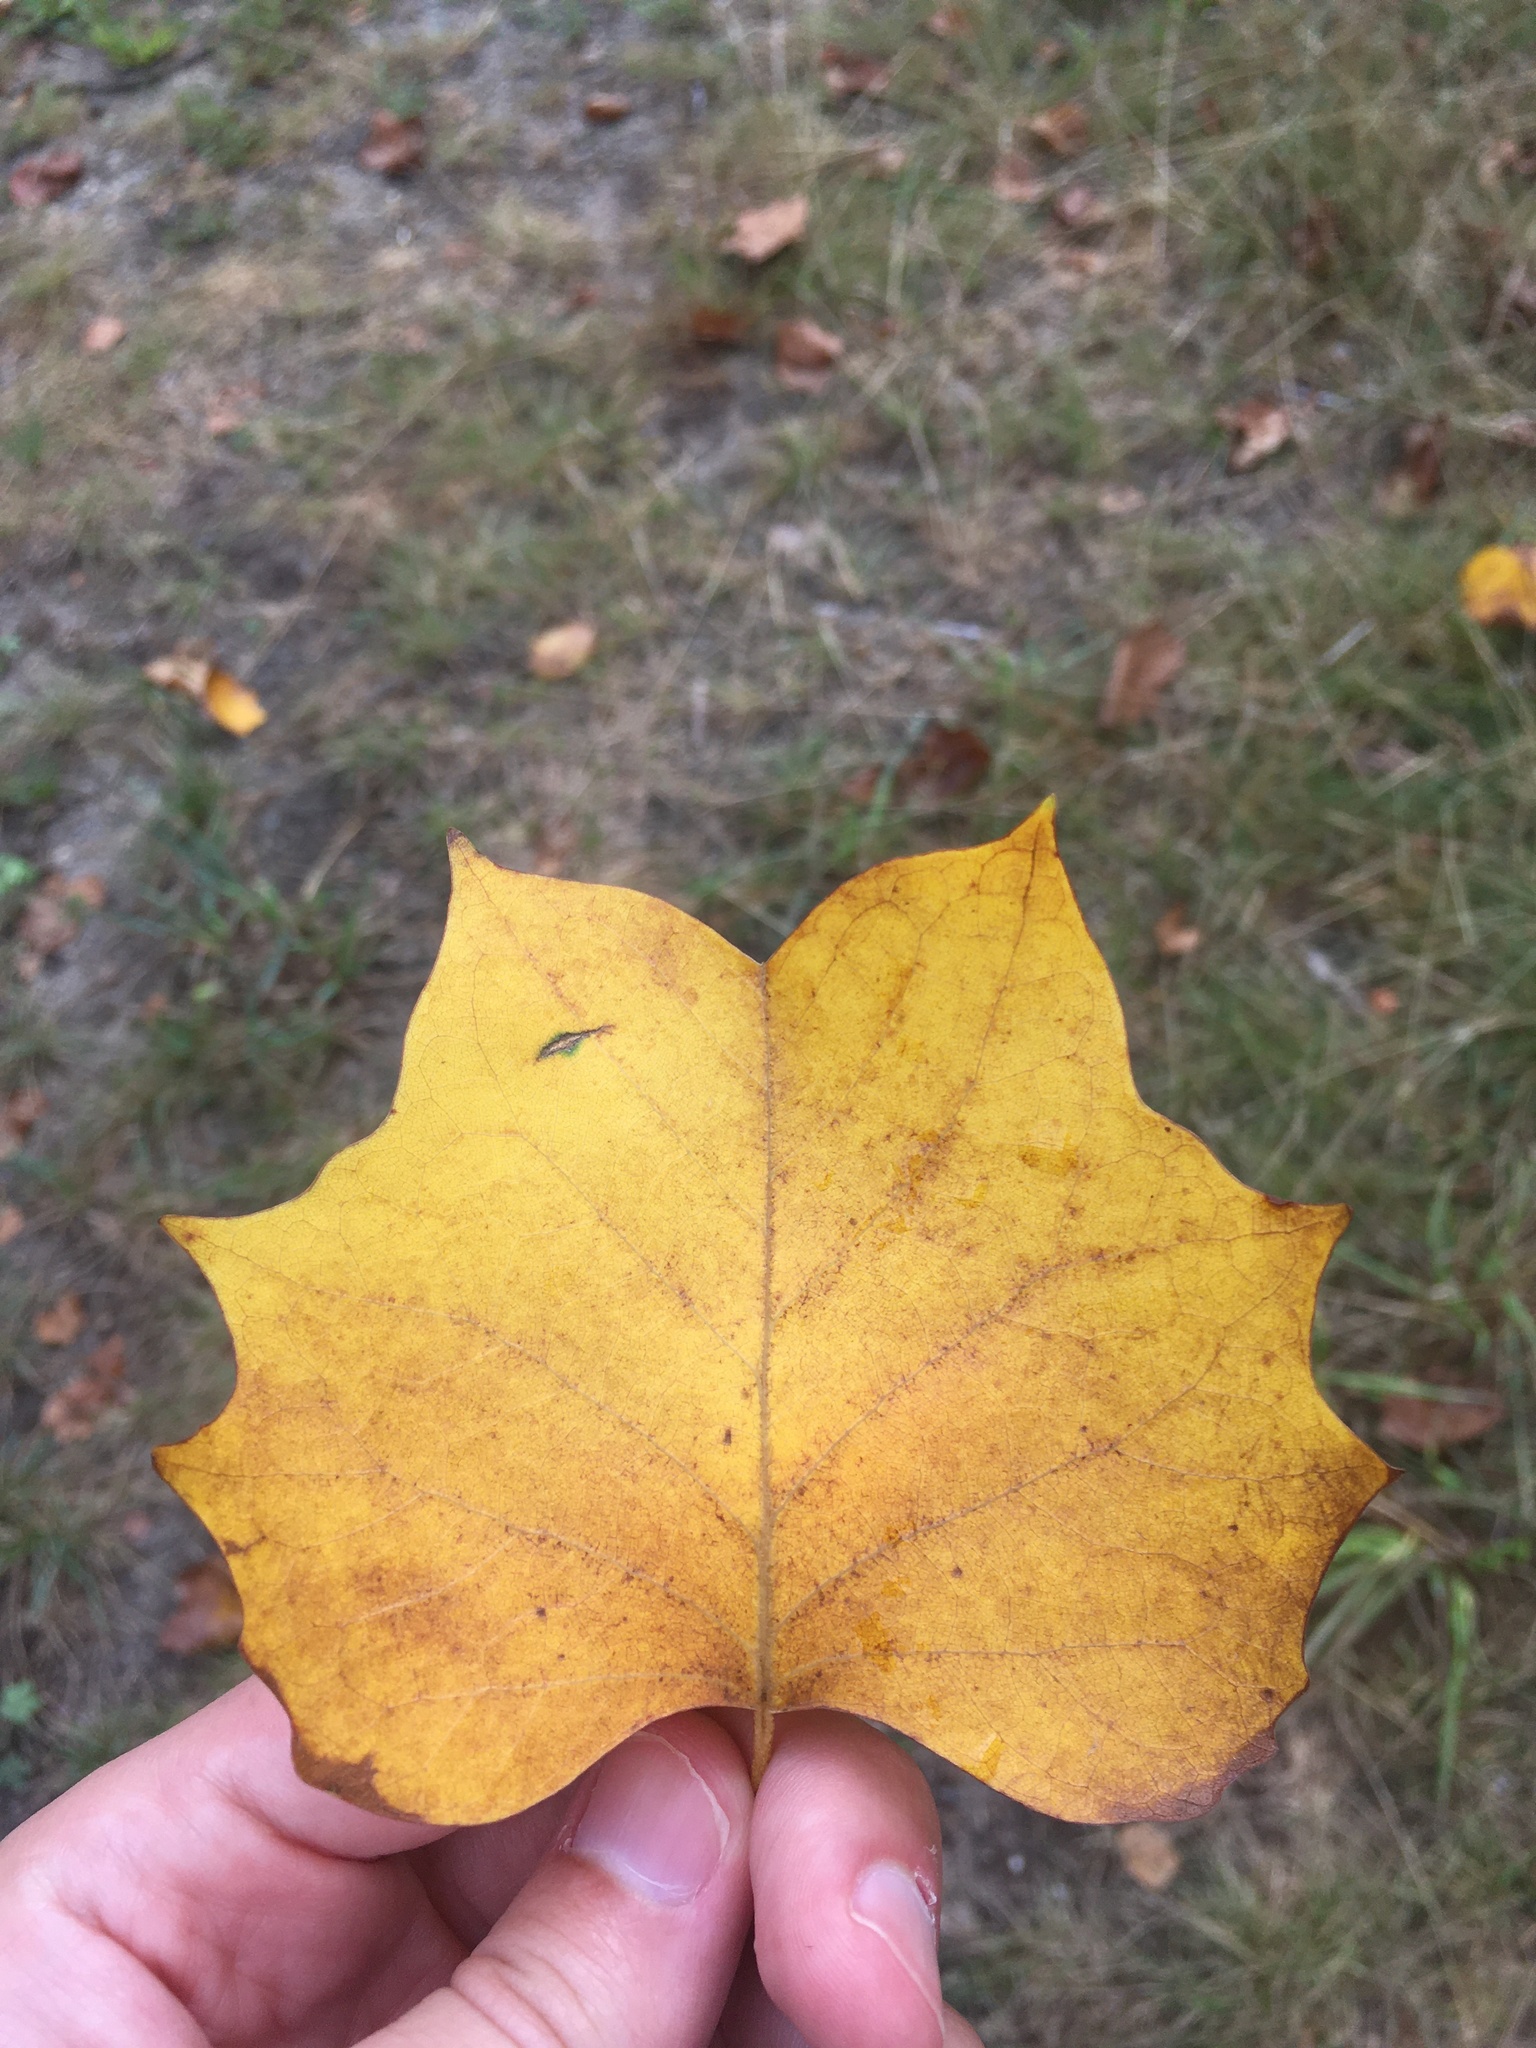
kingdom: Plantae
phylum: Tracheophyta
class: Magnoliopsida
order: Magnoliales
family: Magnoliaceae
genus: Liriodendron
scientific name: Liriodendron tulipifera
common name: Tulip tree
